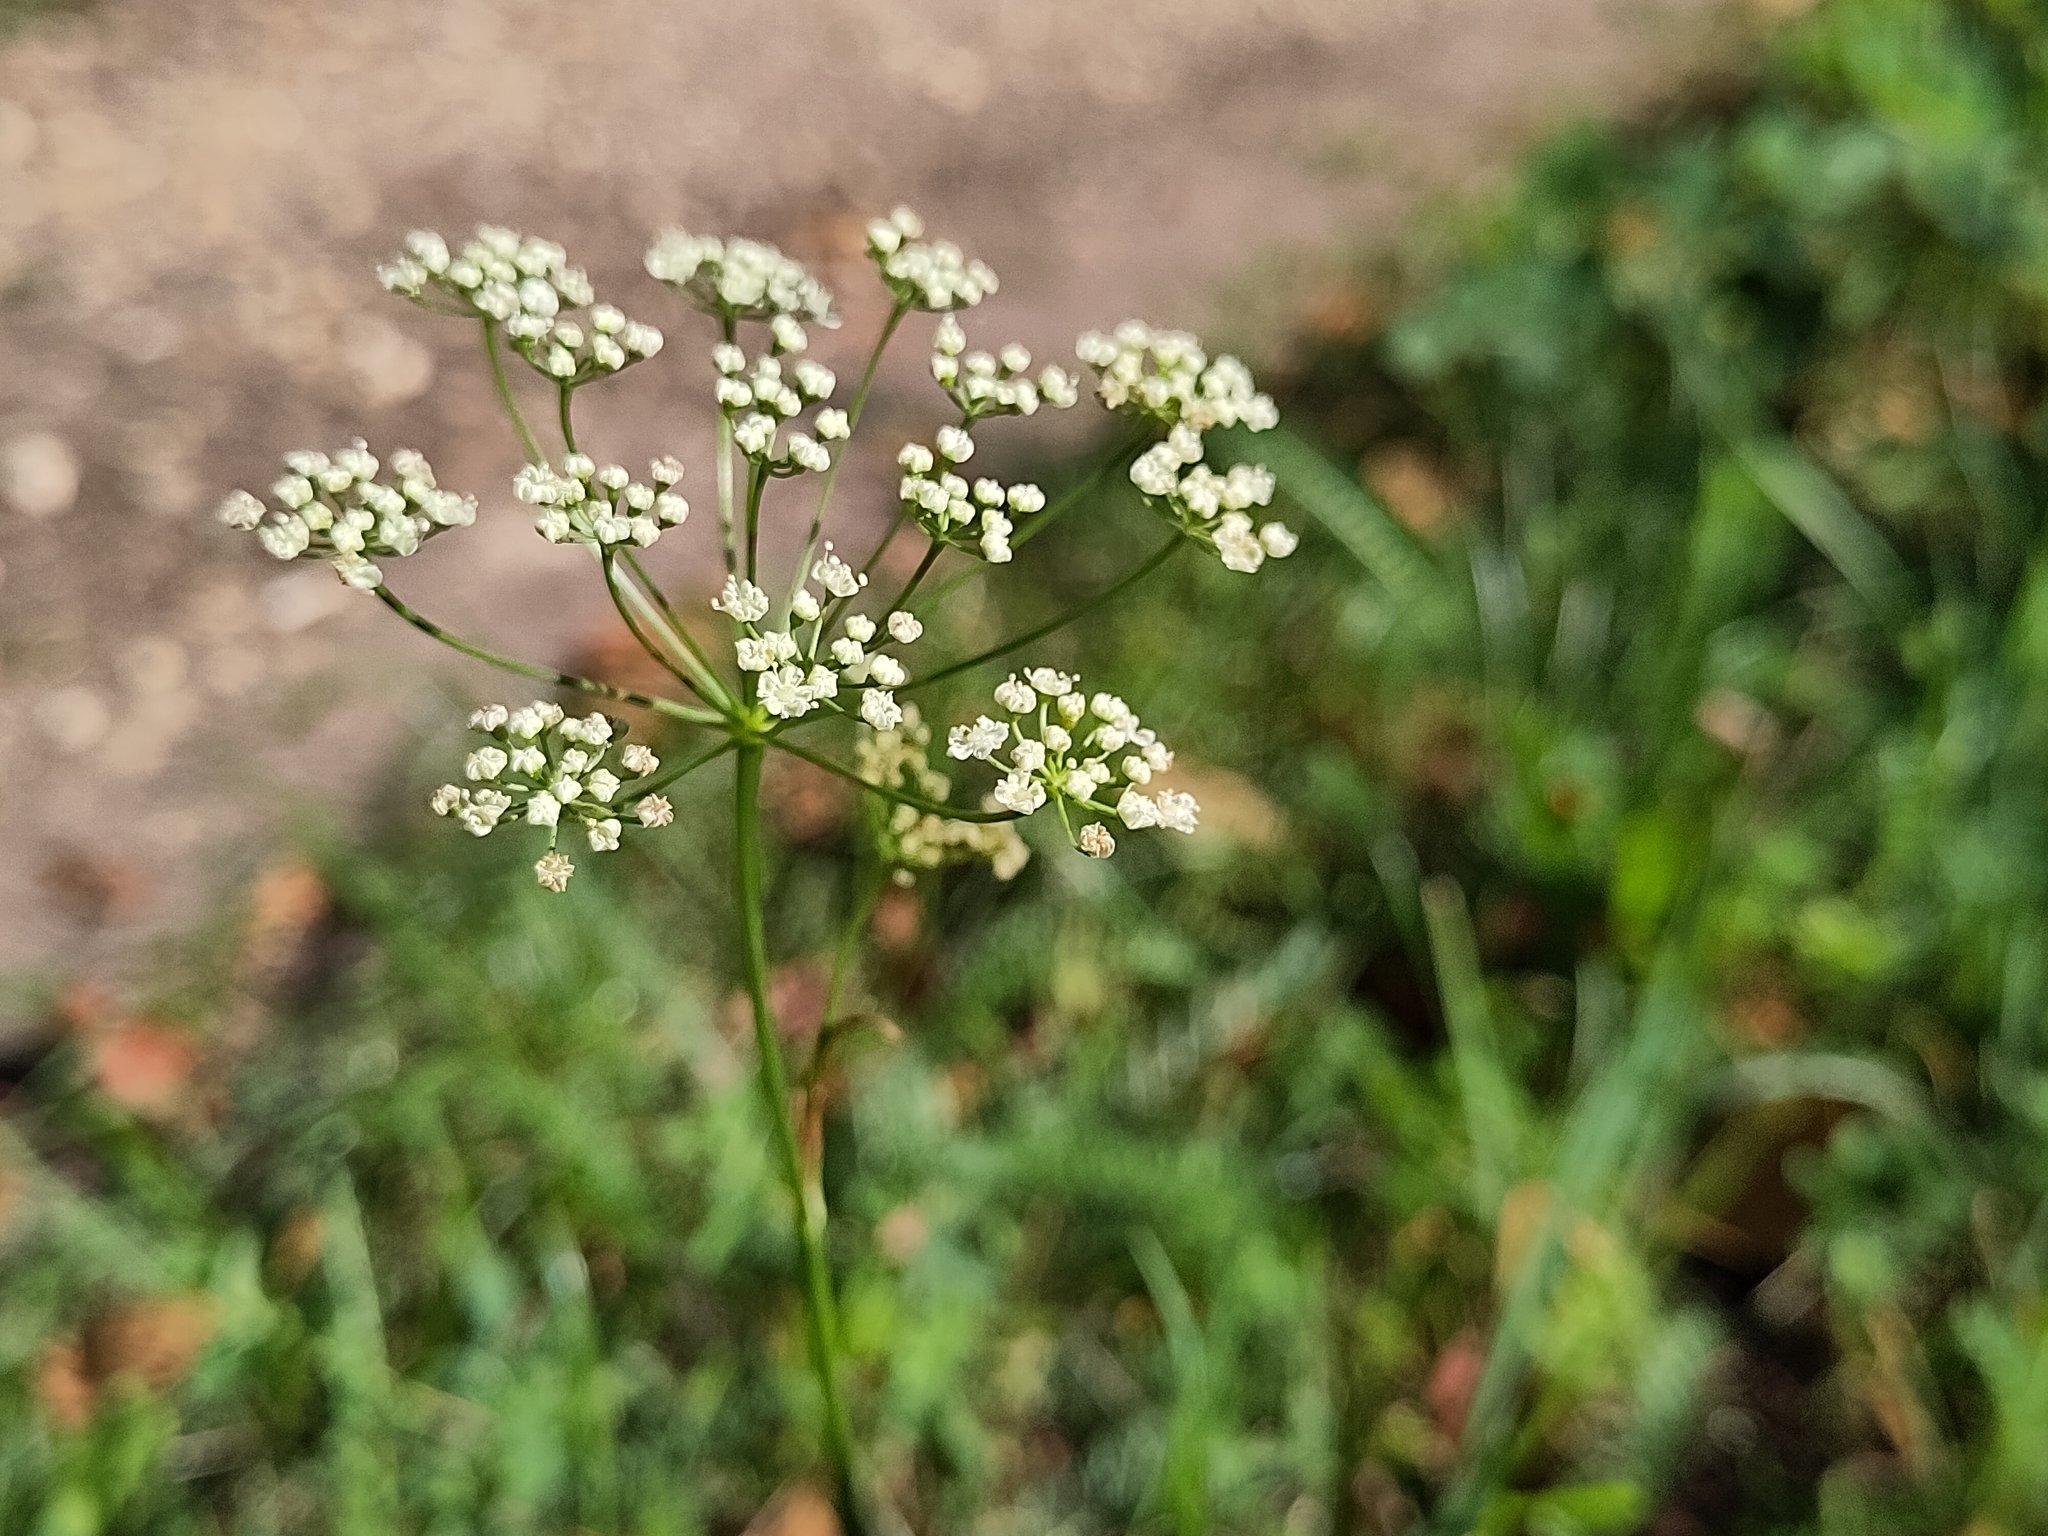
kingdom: Plantae
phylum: Tracheophyta
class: Magnoliopsida
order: Apiales
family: Apiaceae
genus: Pimpinella
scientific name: Pimpinella saxifraga
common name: Burnet-saxifrage
